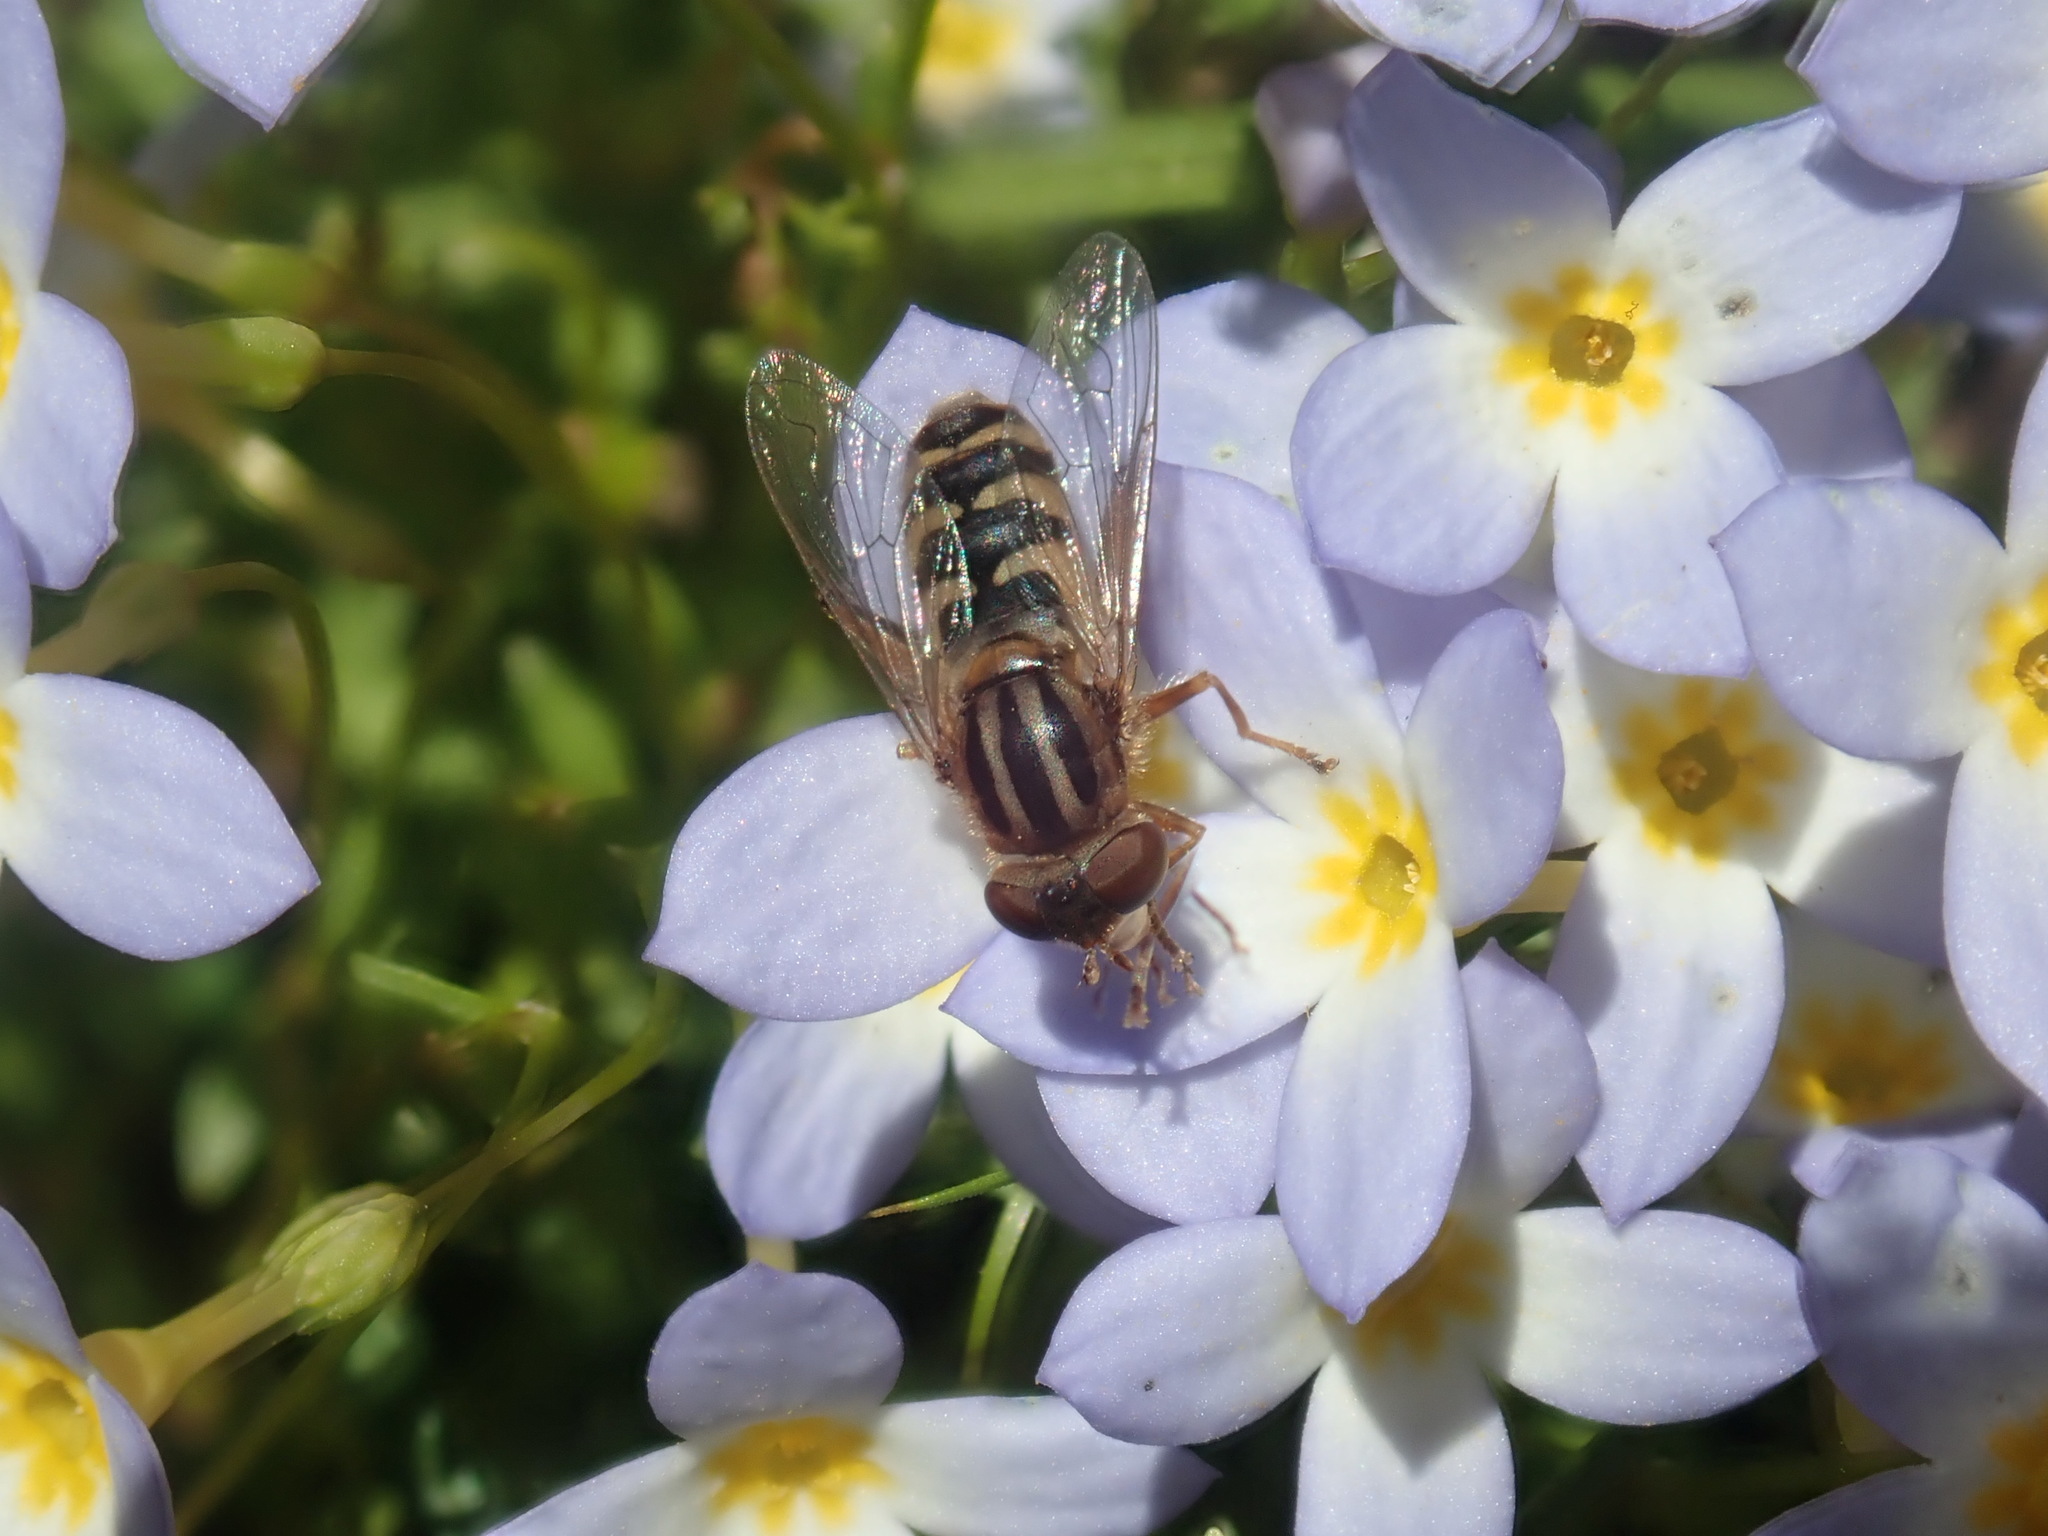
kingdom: Animalia
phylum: Arthropoda
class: Insecta
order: Diptera
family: Syrphidae
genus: Anasimyia
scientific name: Anasimyia
